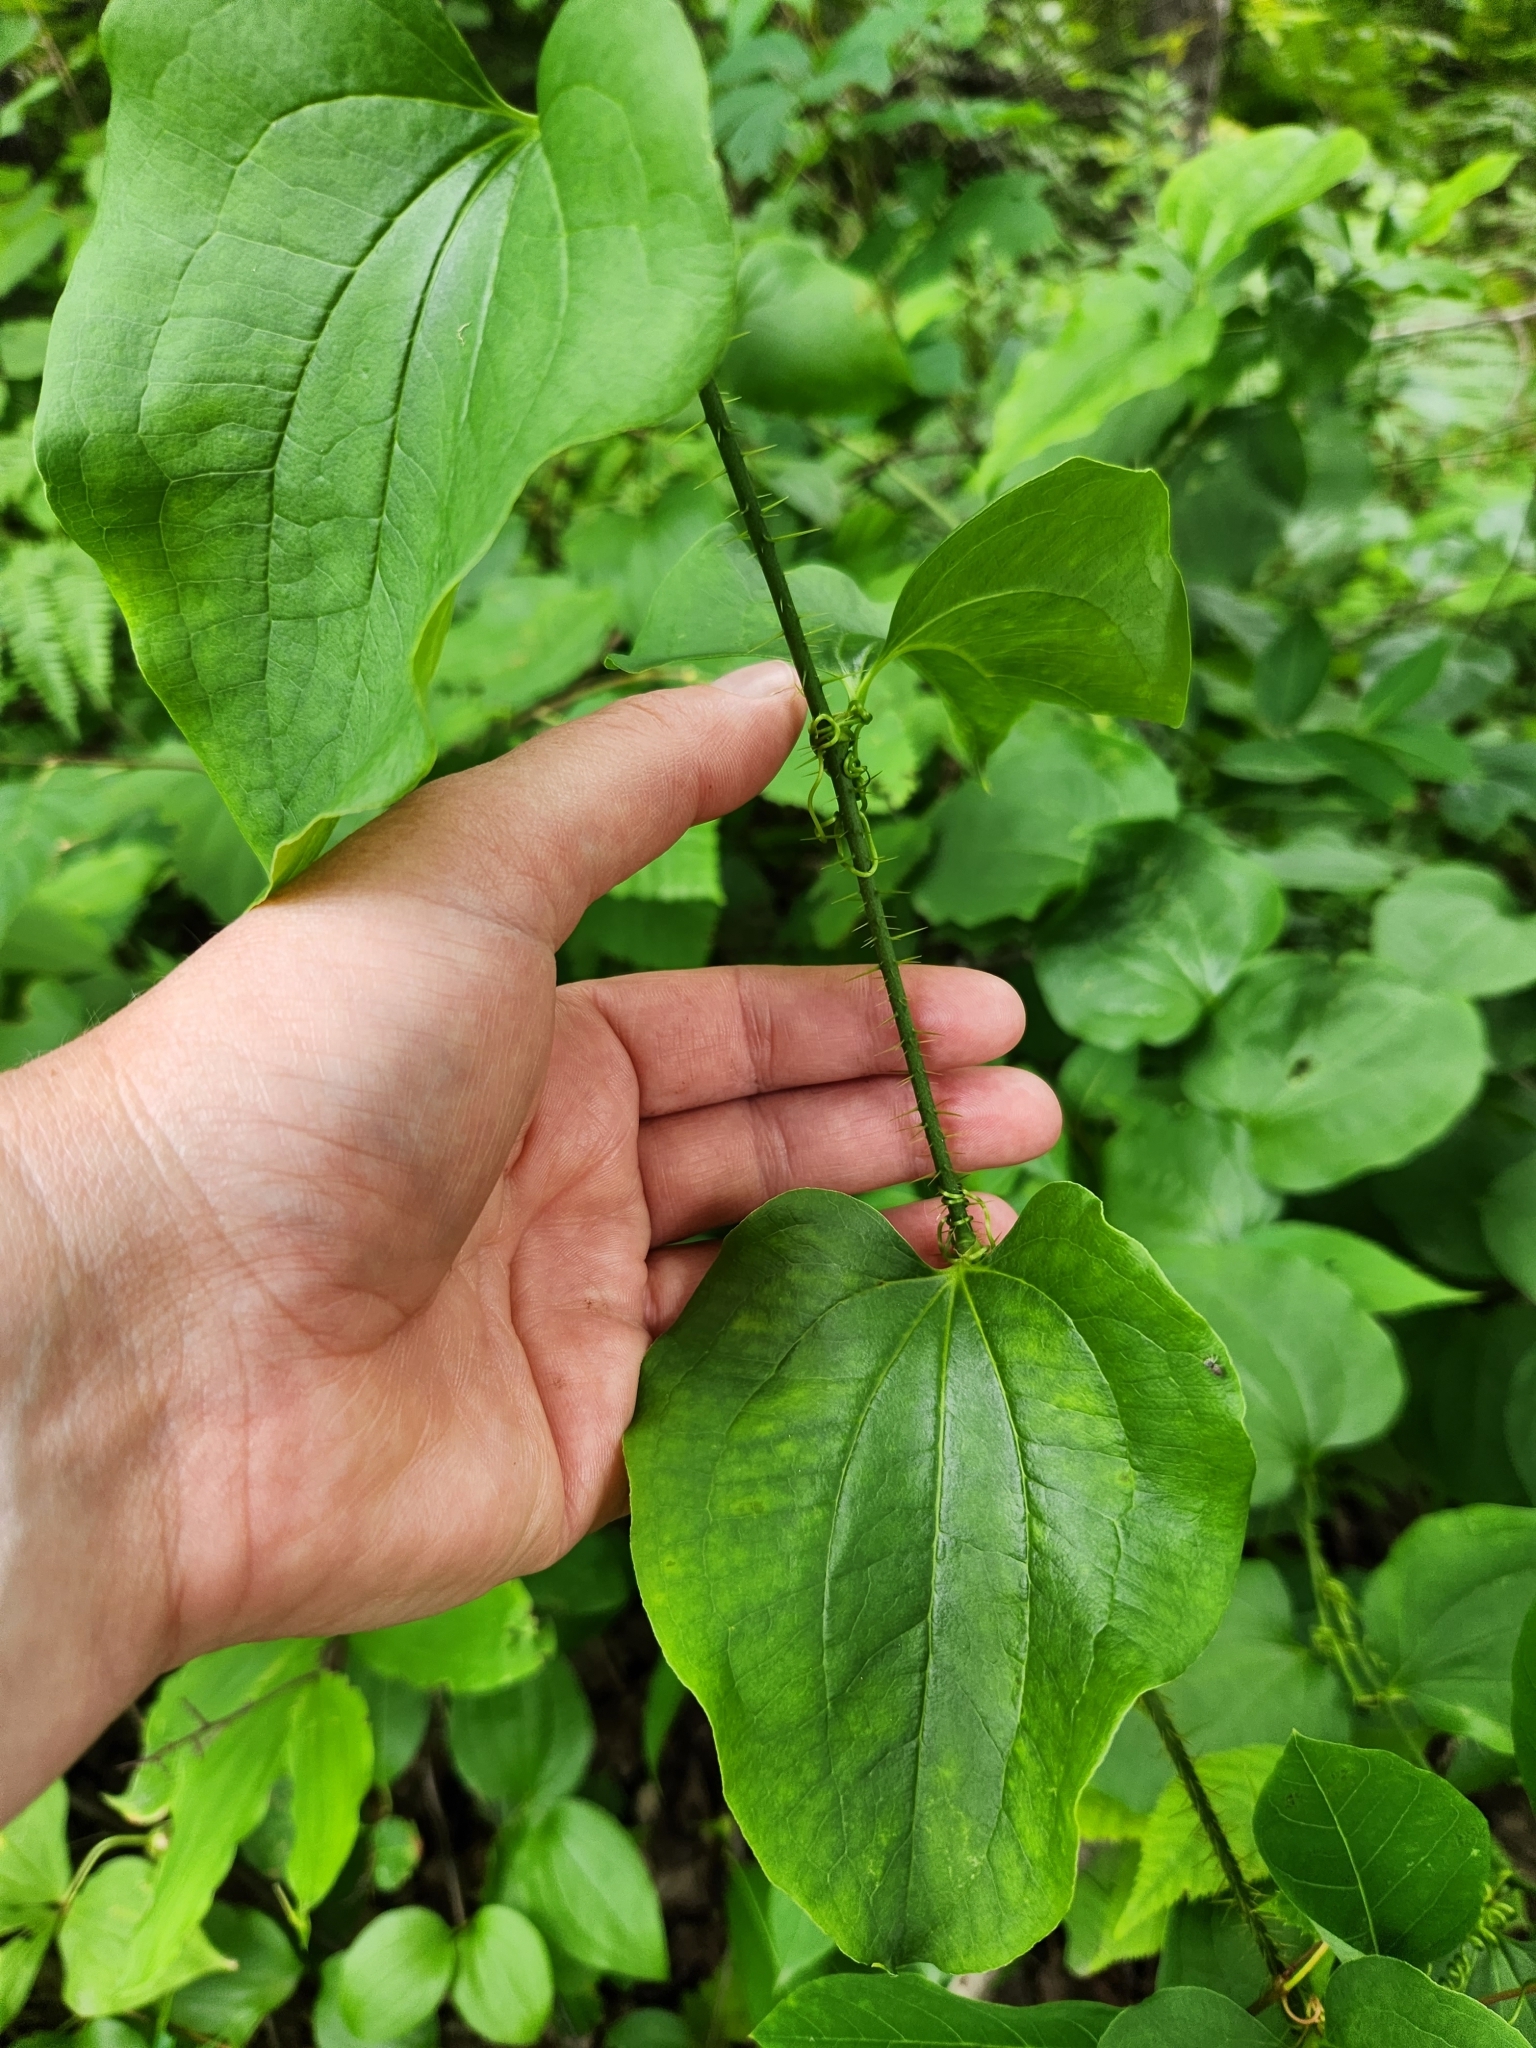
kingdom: Plantae
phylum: Tracheophyta
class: Liliopsida
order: Liliales
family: Smilacaceae
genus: Smilax
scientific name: Smilax tamnoides
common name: Hellfetter
